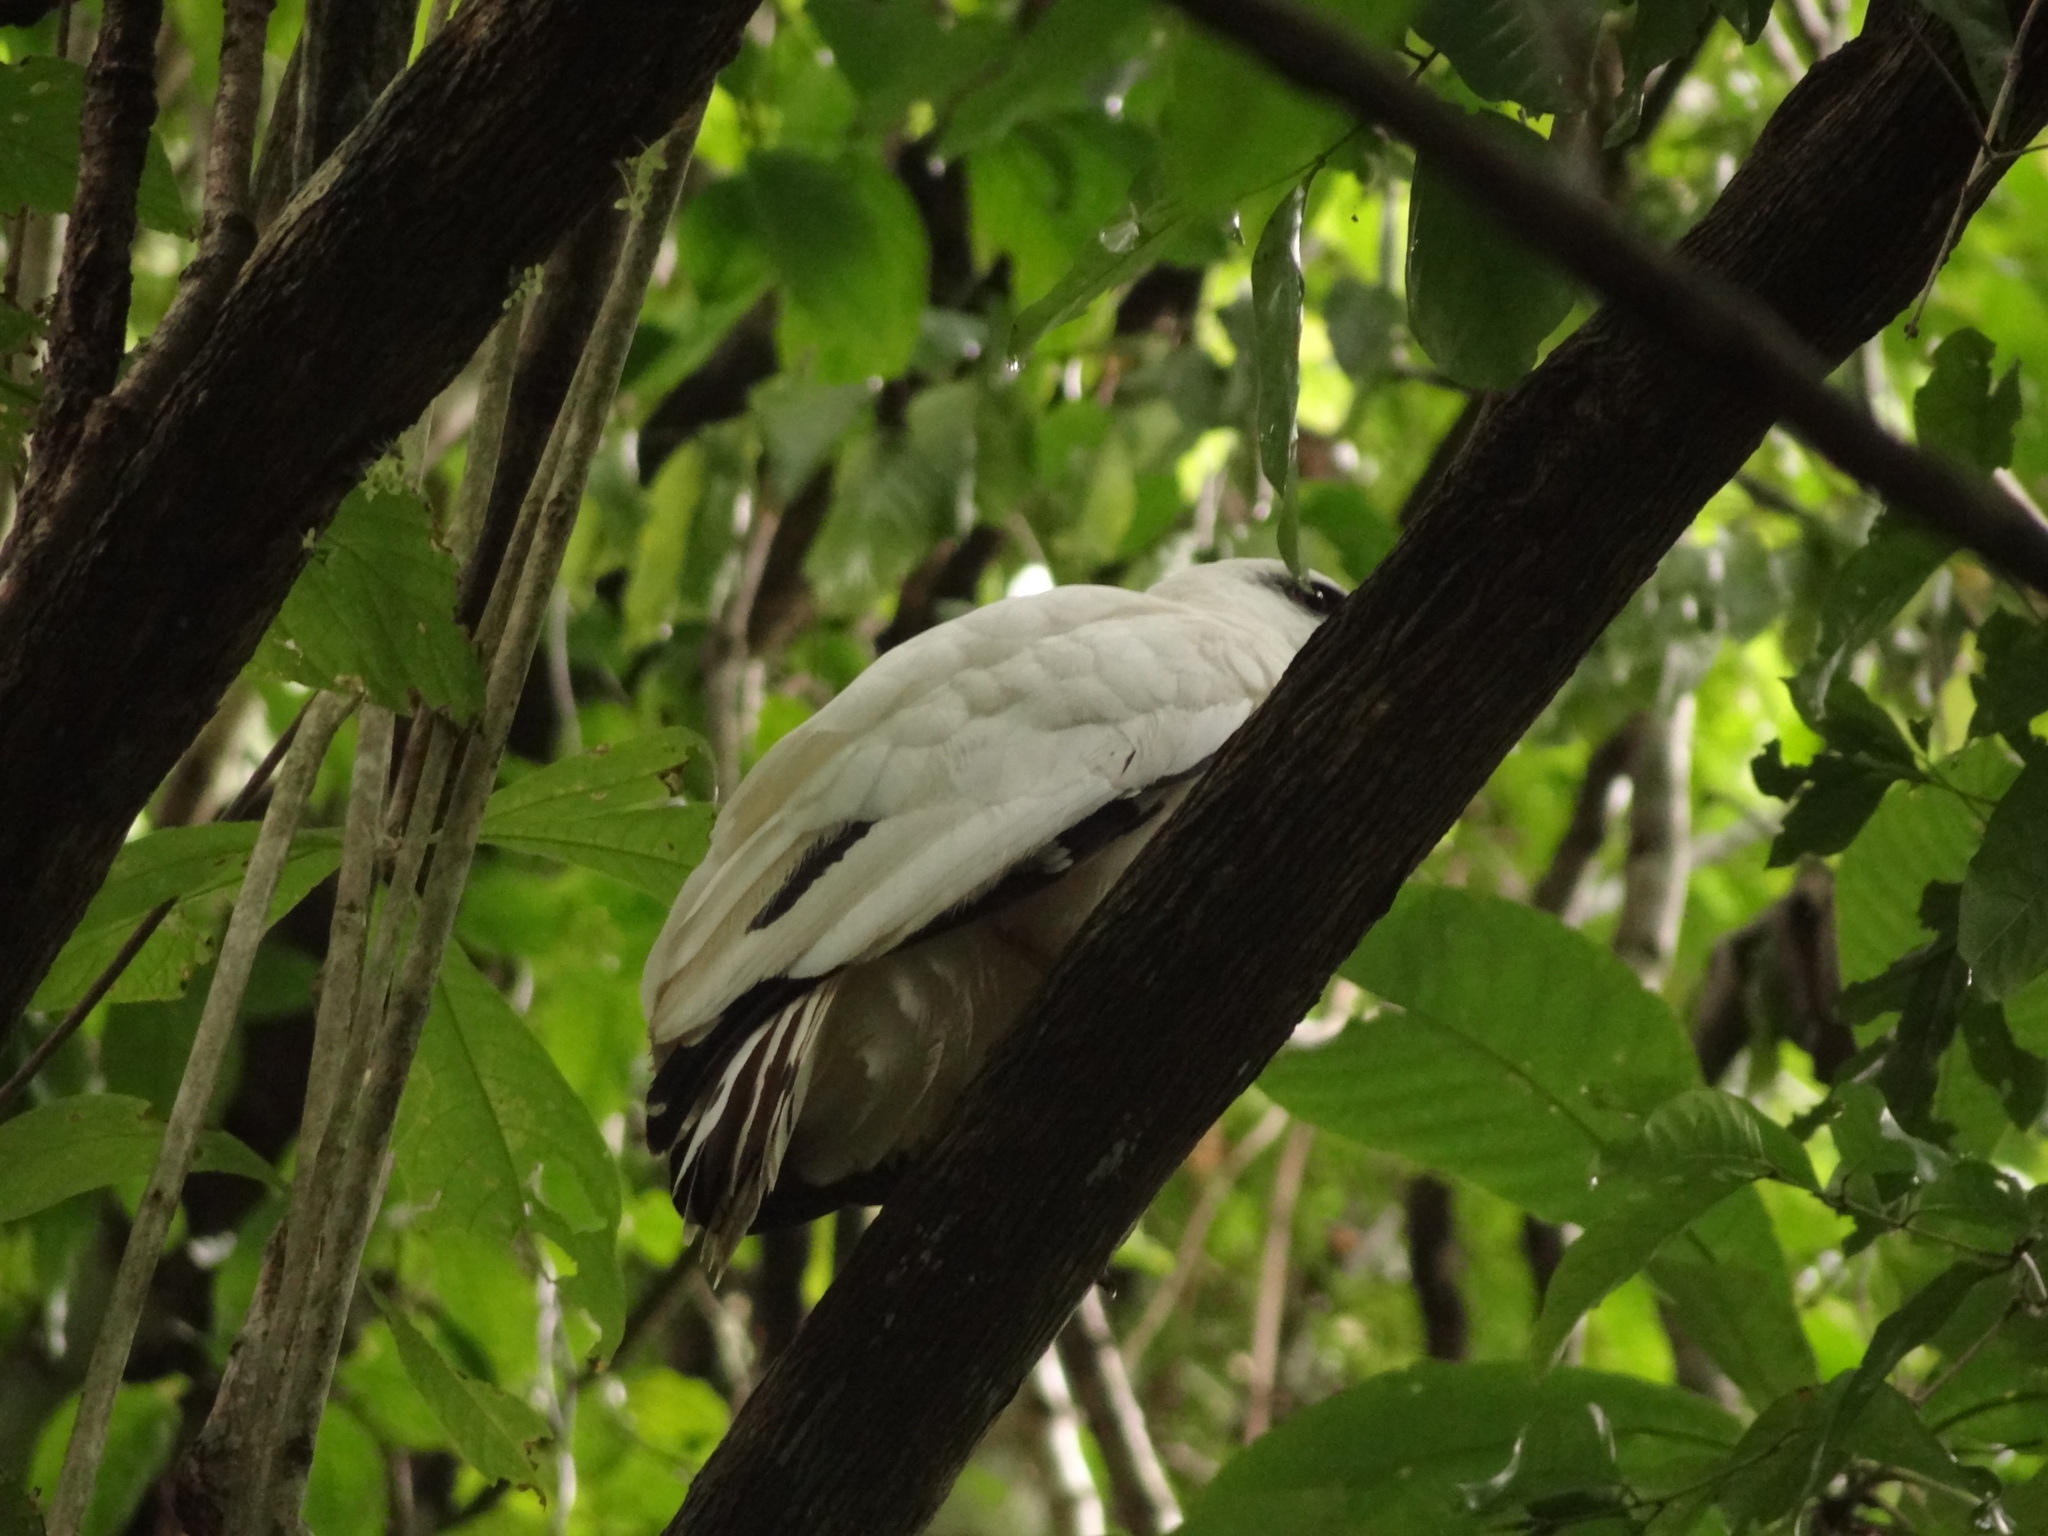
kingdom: Animalia
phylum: Chordata
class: Aves
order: Accipitriformes
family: Accipitridae
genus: Leucopternis
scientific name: Leucopternis albicollis
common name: White hawk
